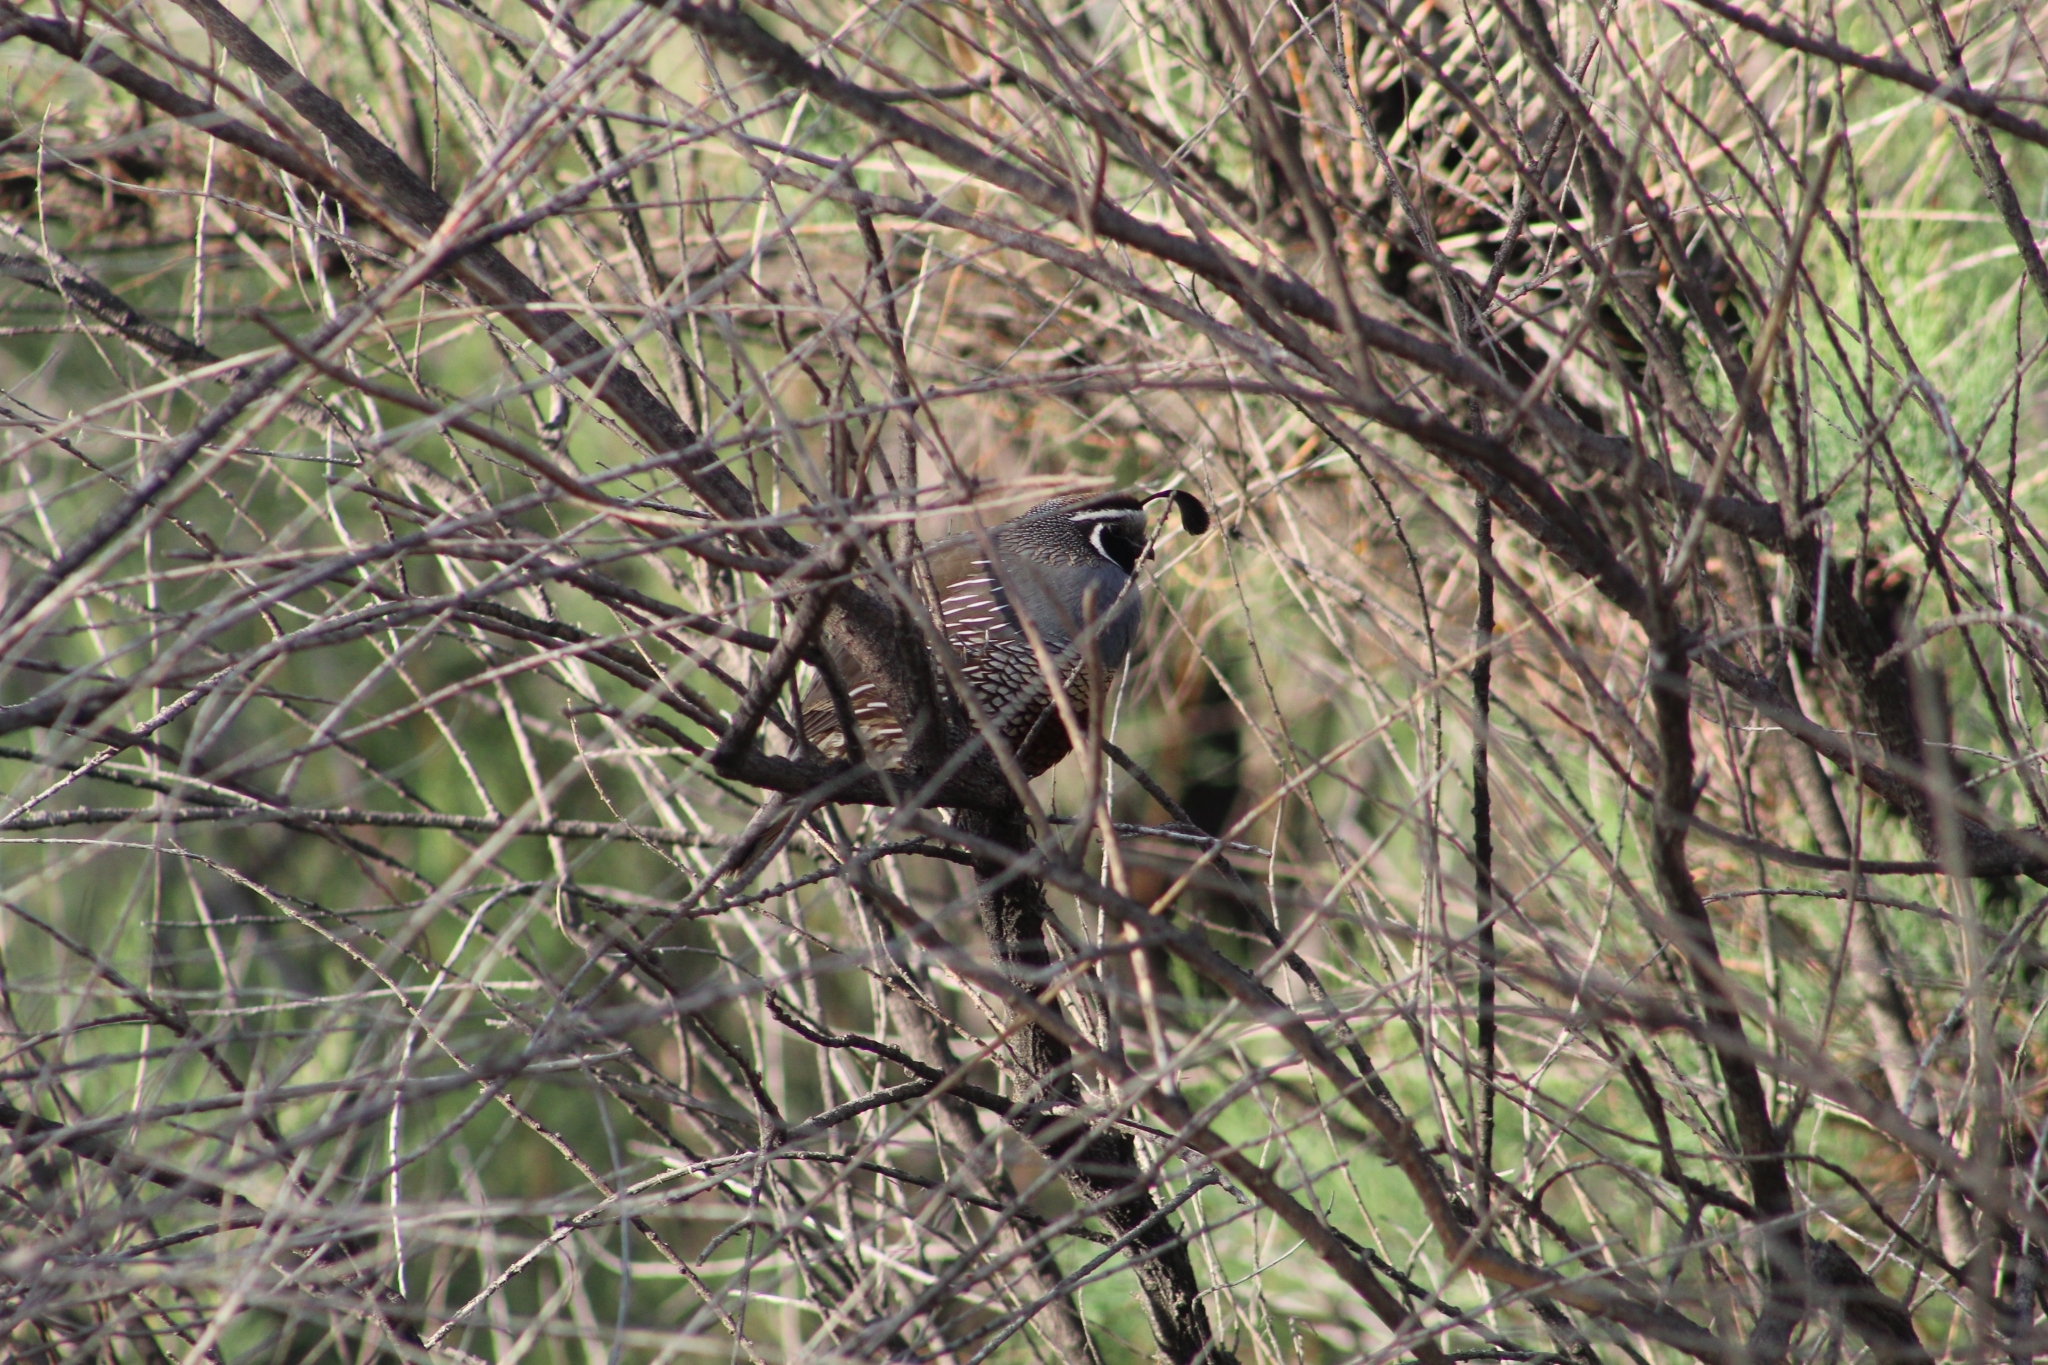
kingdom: Animalia
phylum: Chordata
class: Aves
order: Galliformes
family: Odontophoridae
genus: Callipepla
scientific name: Callipepla californica
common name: California quail
